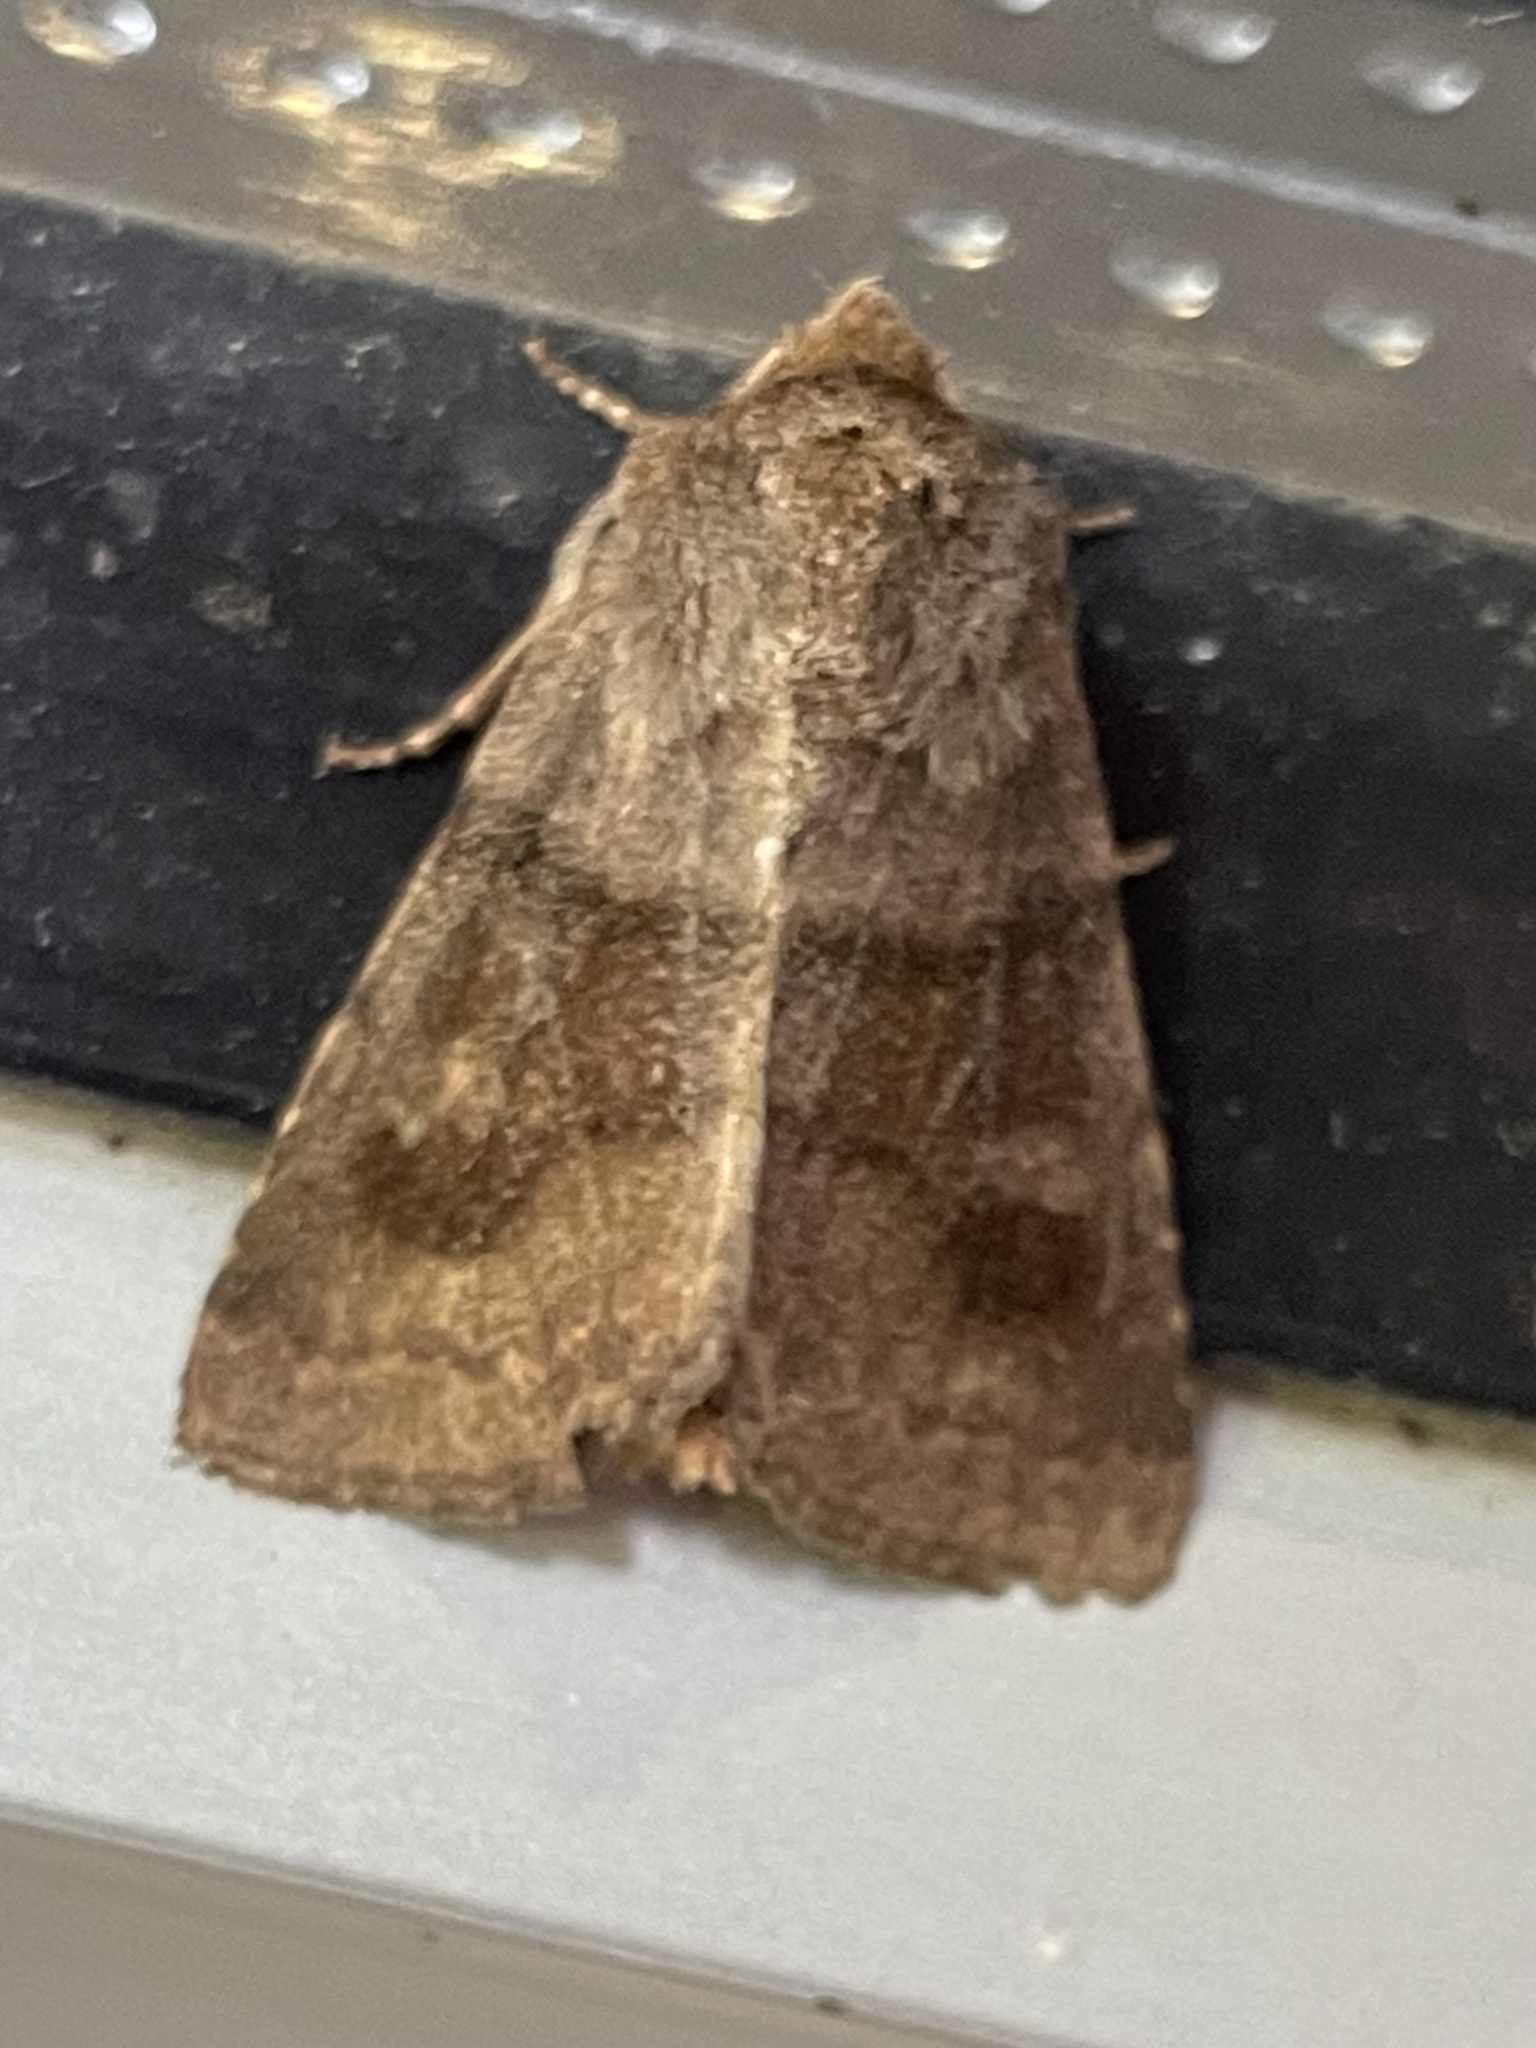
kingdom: Animalia
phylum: Arthropoda
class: Insecta
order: Lepidoptera
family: Noctuidae
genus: Nephelodes
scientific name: Nephelodes minians
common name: Bronzed cutworm
